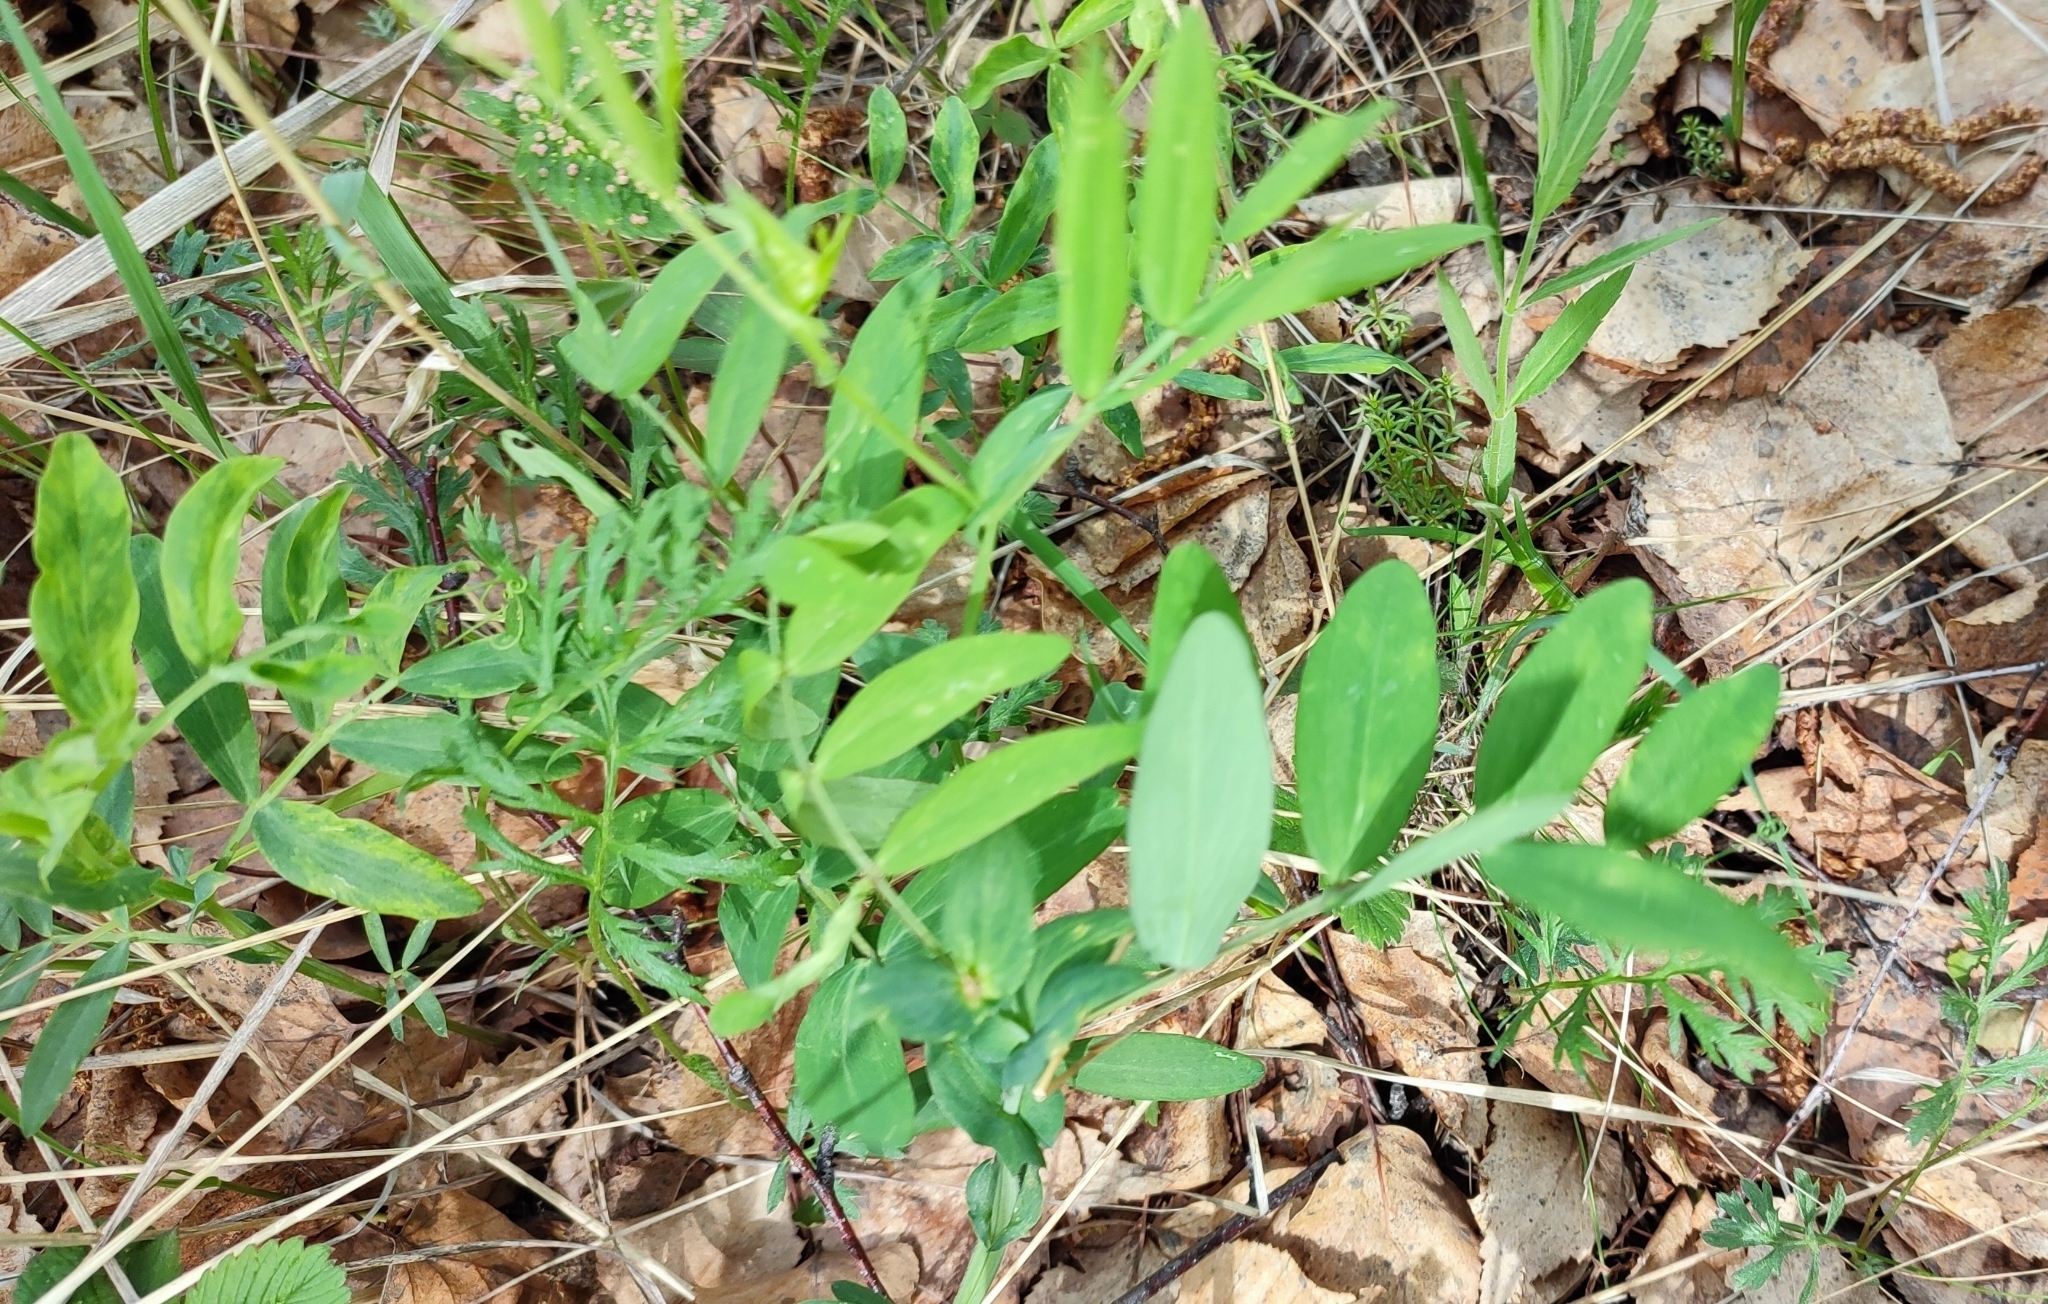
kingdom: Plantae
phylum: Tracheophyta
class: Magnoliopsida
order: Fabales
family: Fabaceae
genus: Lathyrus
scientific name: Lathyrus pisiformis
